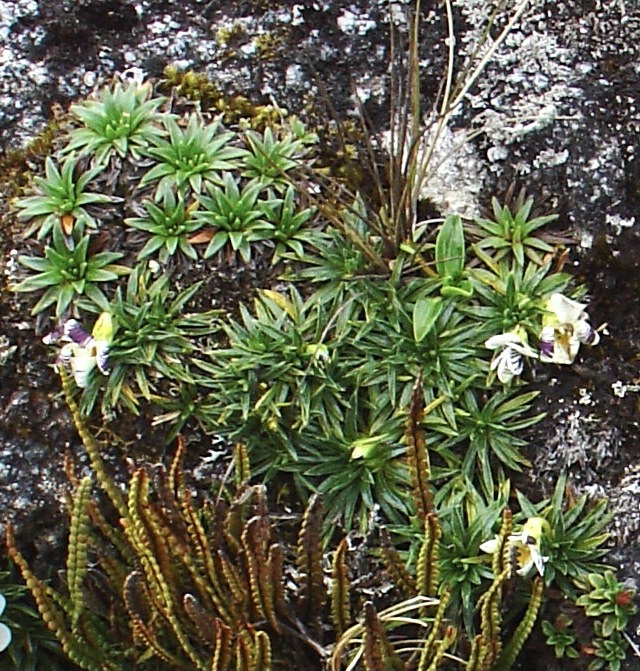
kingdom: Plantae
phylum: Tracheophyta
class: Magnoliopsida
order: Malpighiales
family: Violaceae
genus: Viola
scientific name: Viola pygmaea
